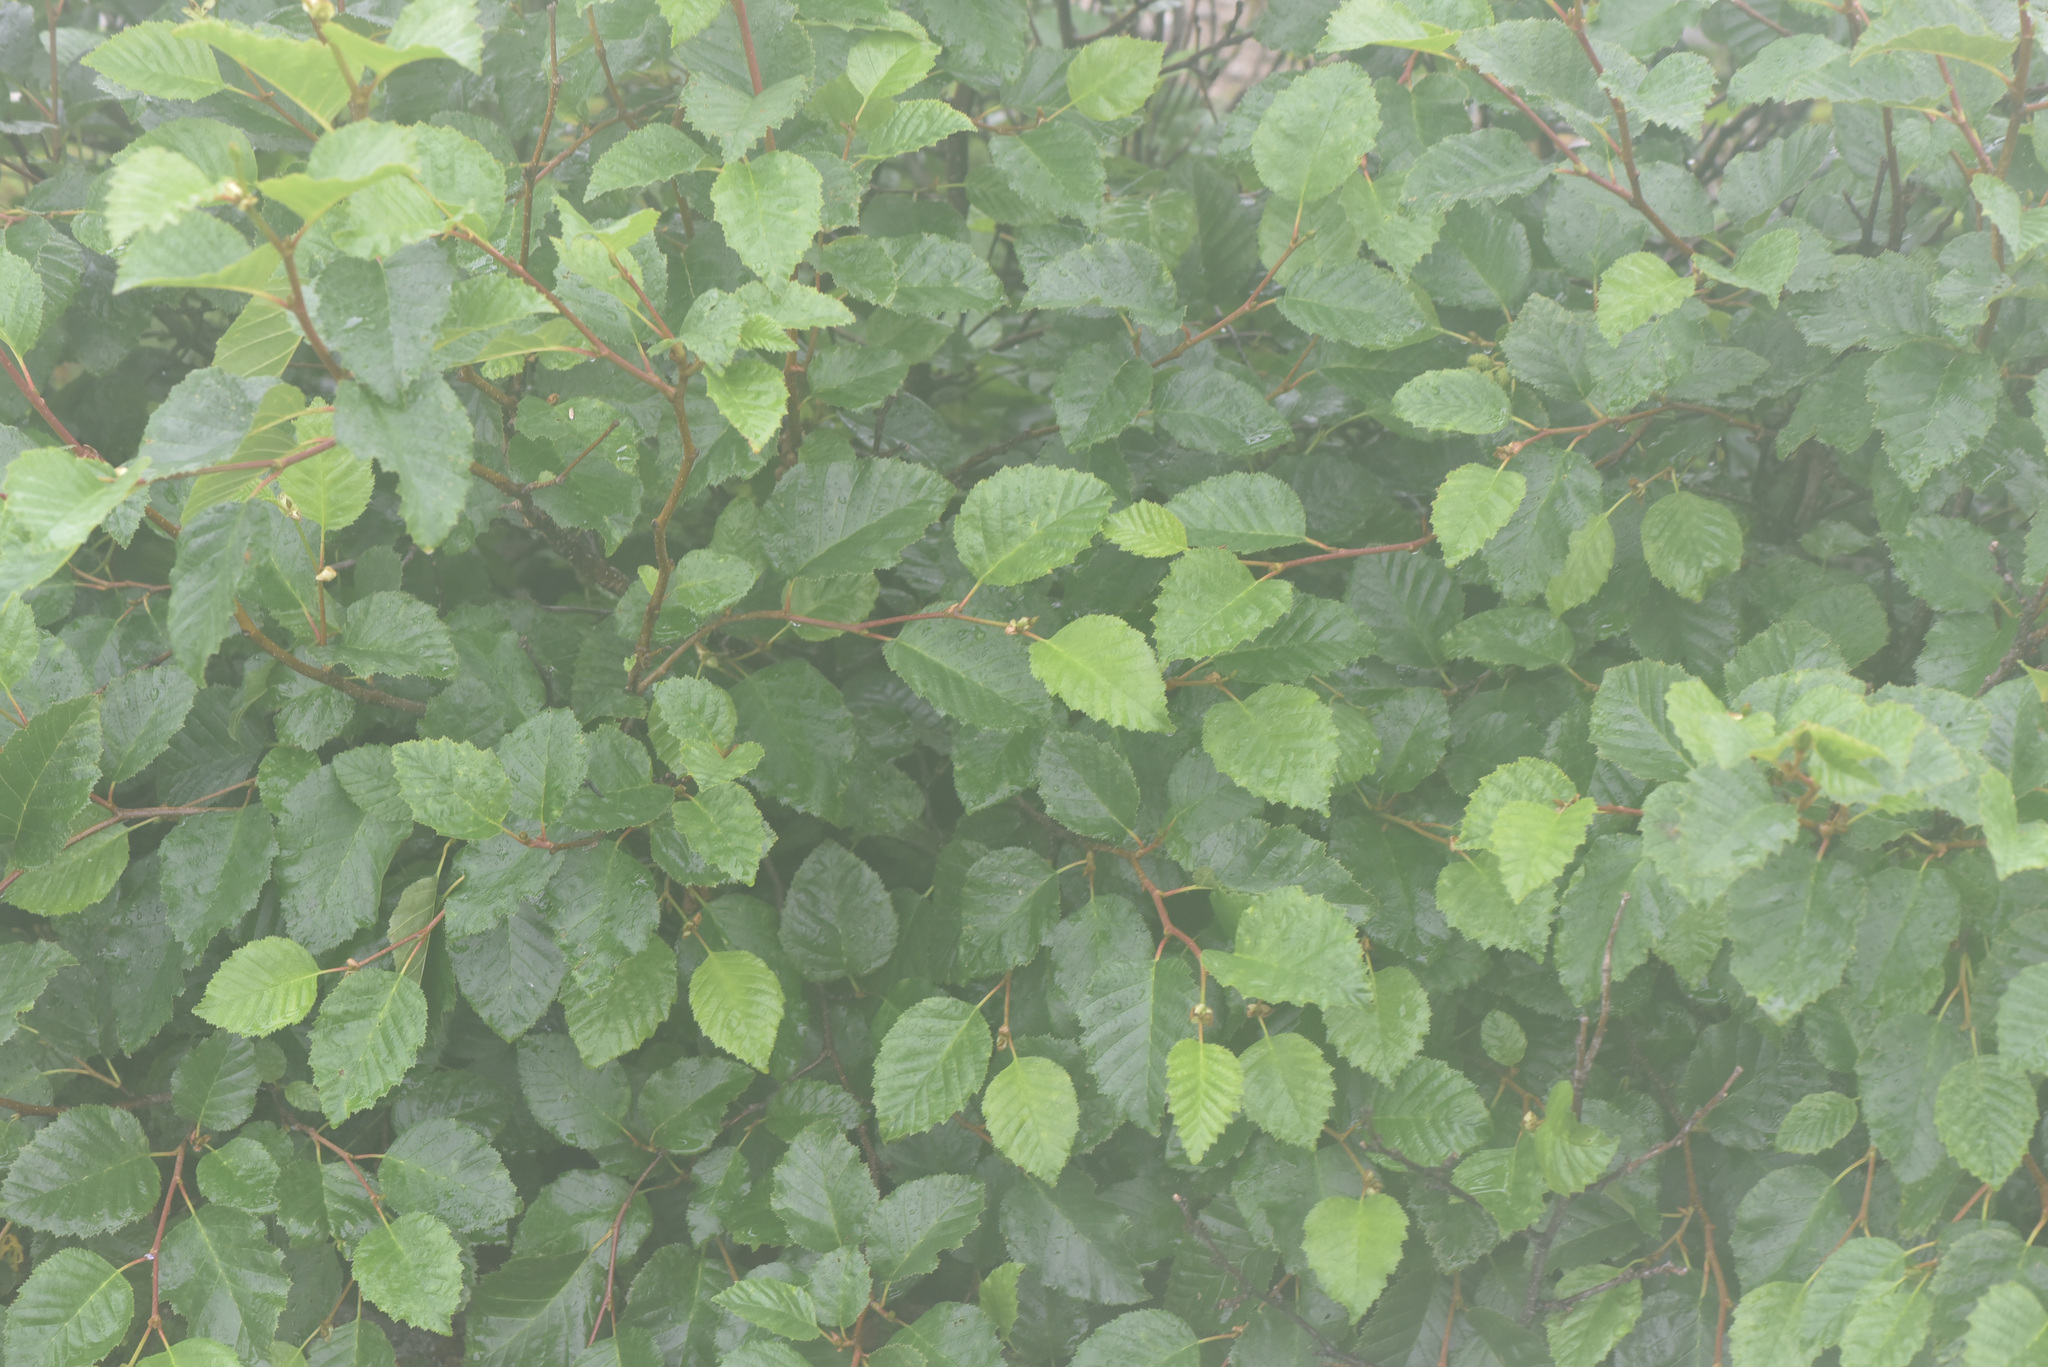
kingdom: Plantae
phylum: Tracheophyta
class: Magnoliopsida
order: Fagales
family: Betulaceae
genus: Alnus
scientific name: Alnus alnobetula
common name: Green alder
